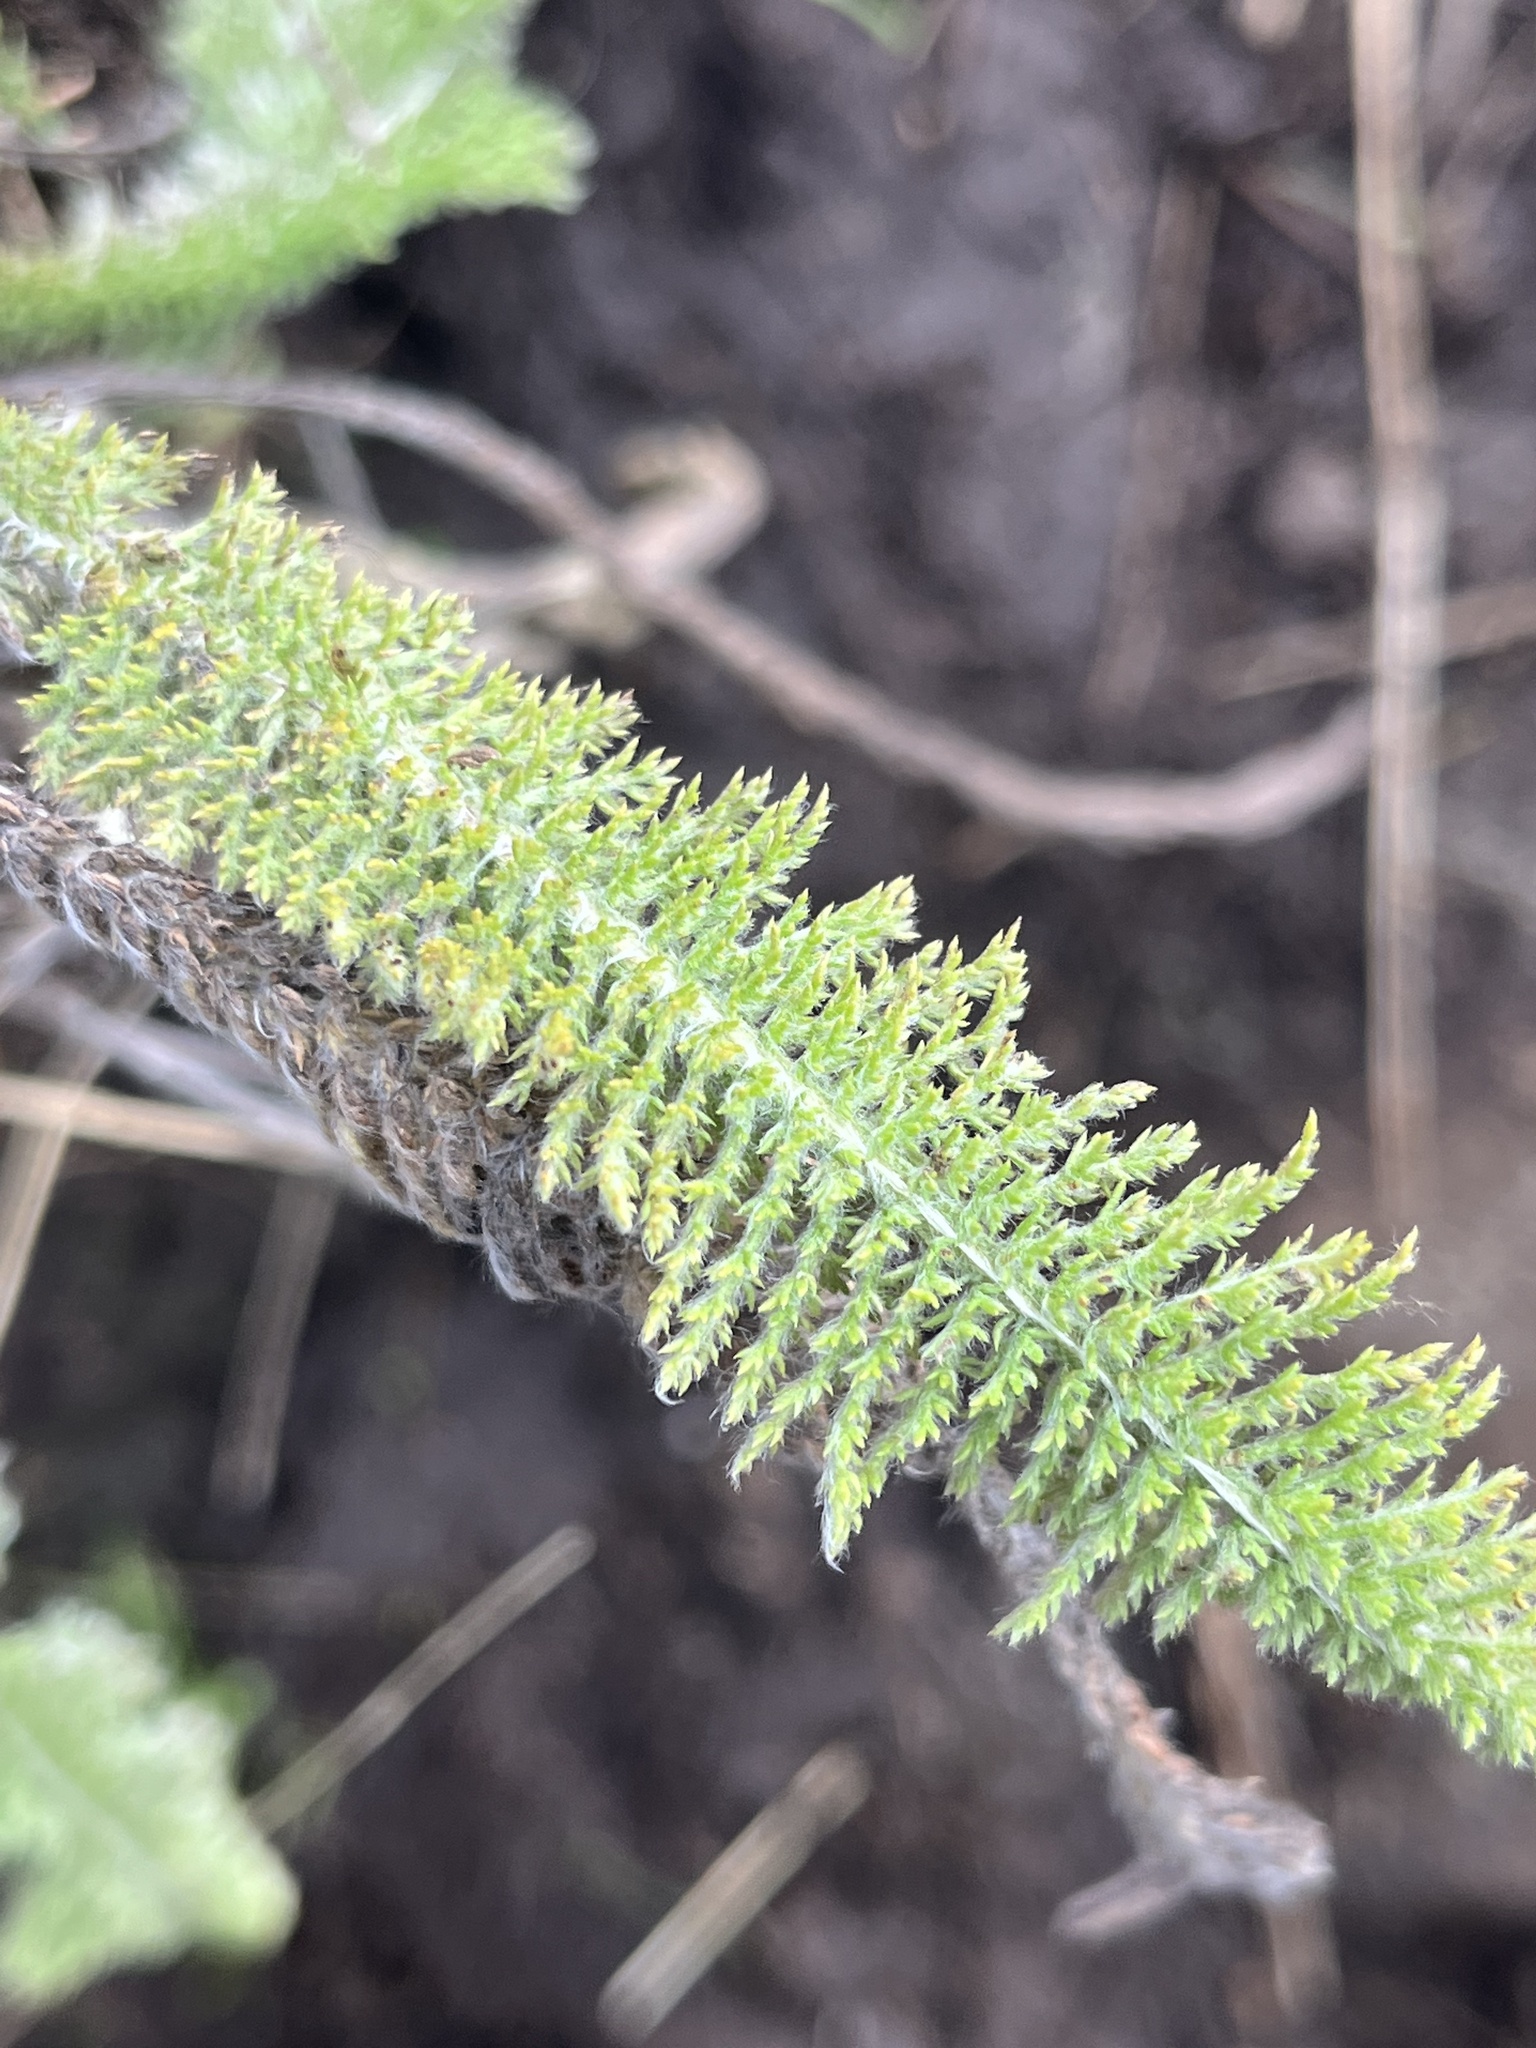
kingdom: Plantae
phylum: Tracheophyta
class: Magnoliopsida
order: Asterales
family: Asteraceae
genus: Achillea
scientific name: Achillea millefolium
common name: Yarrow
